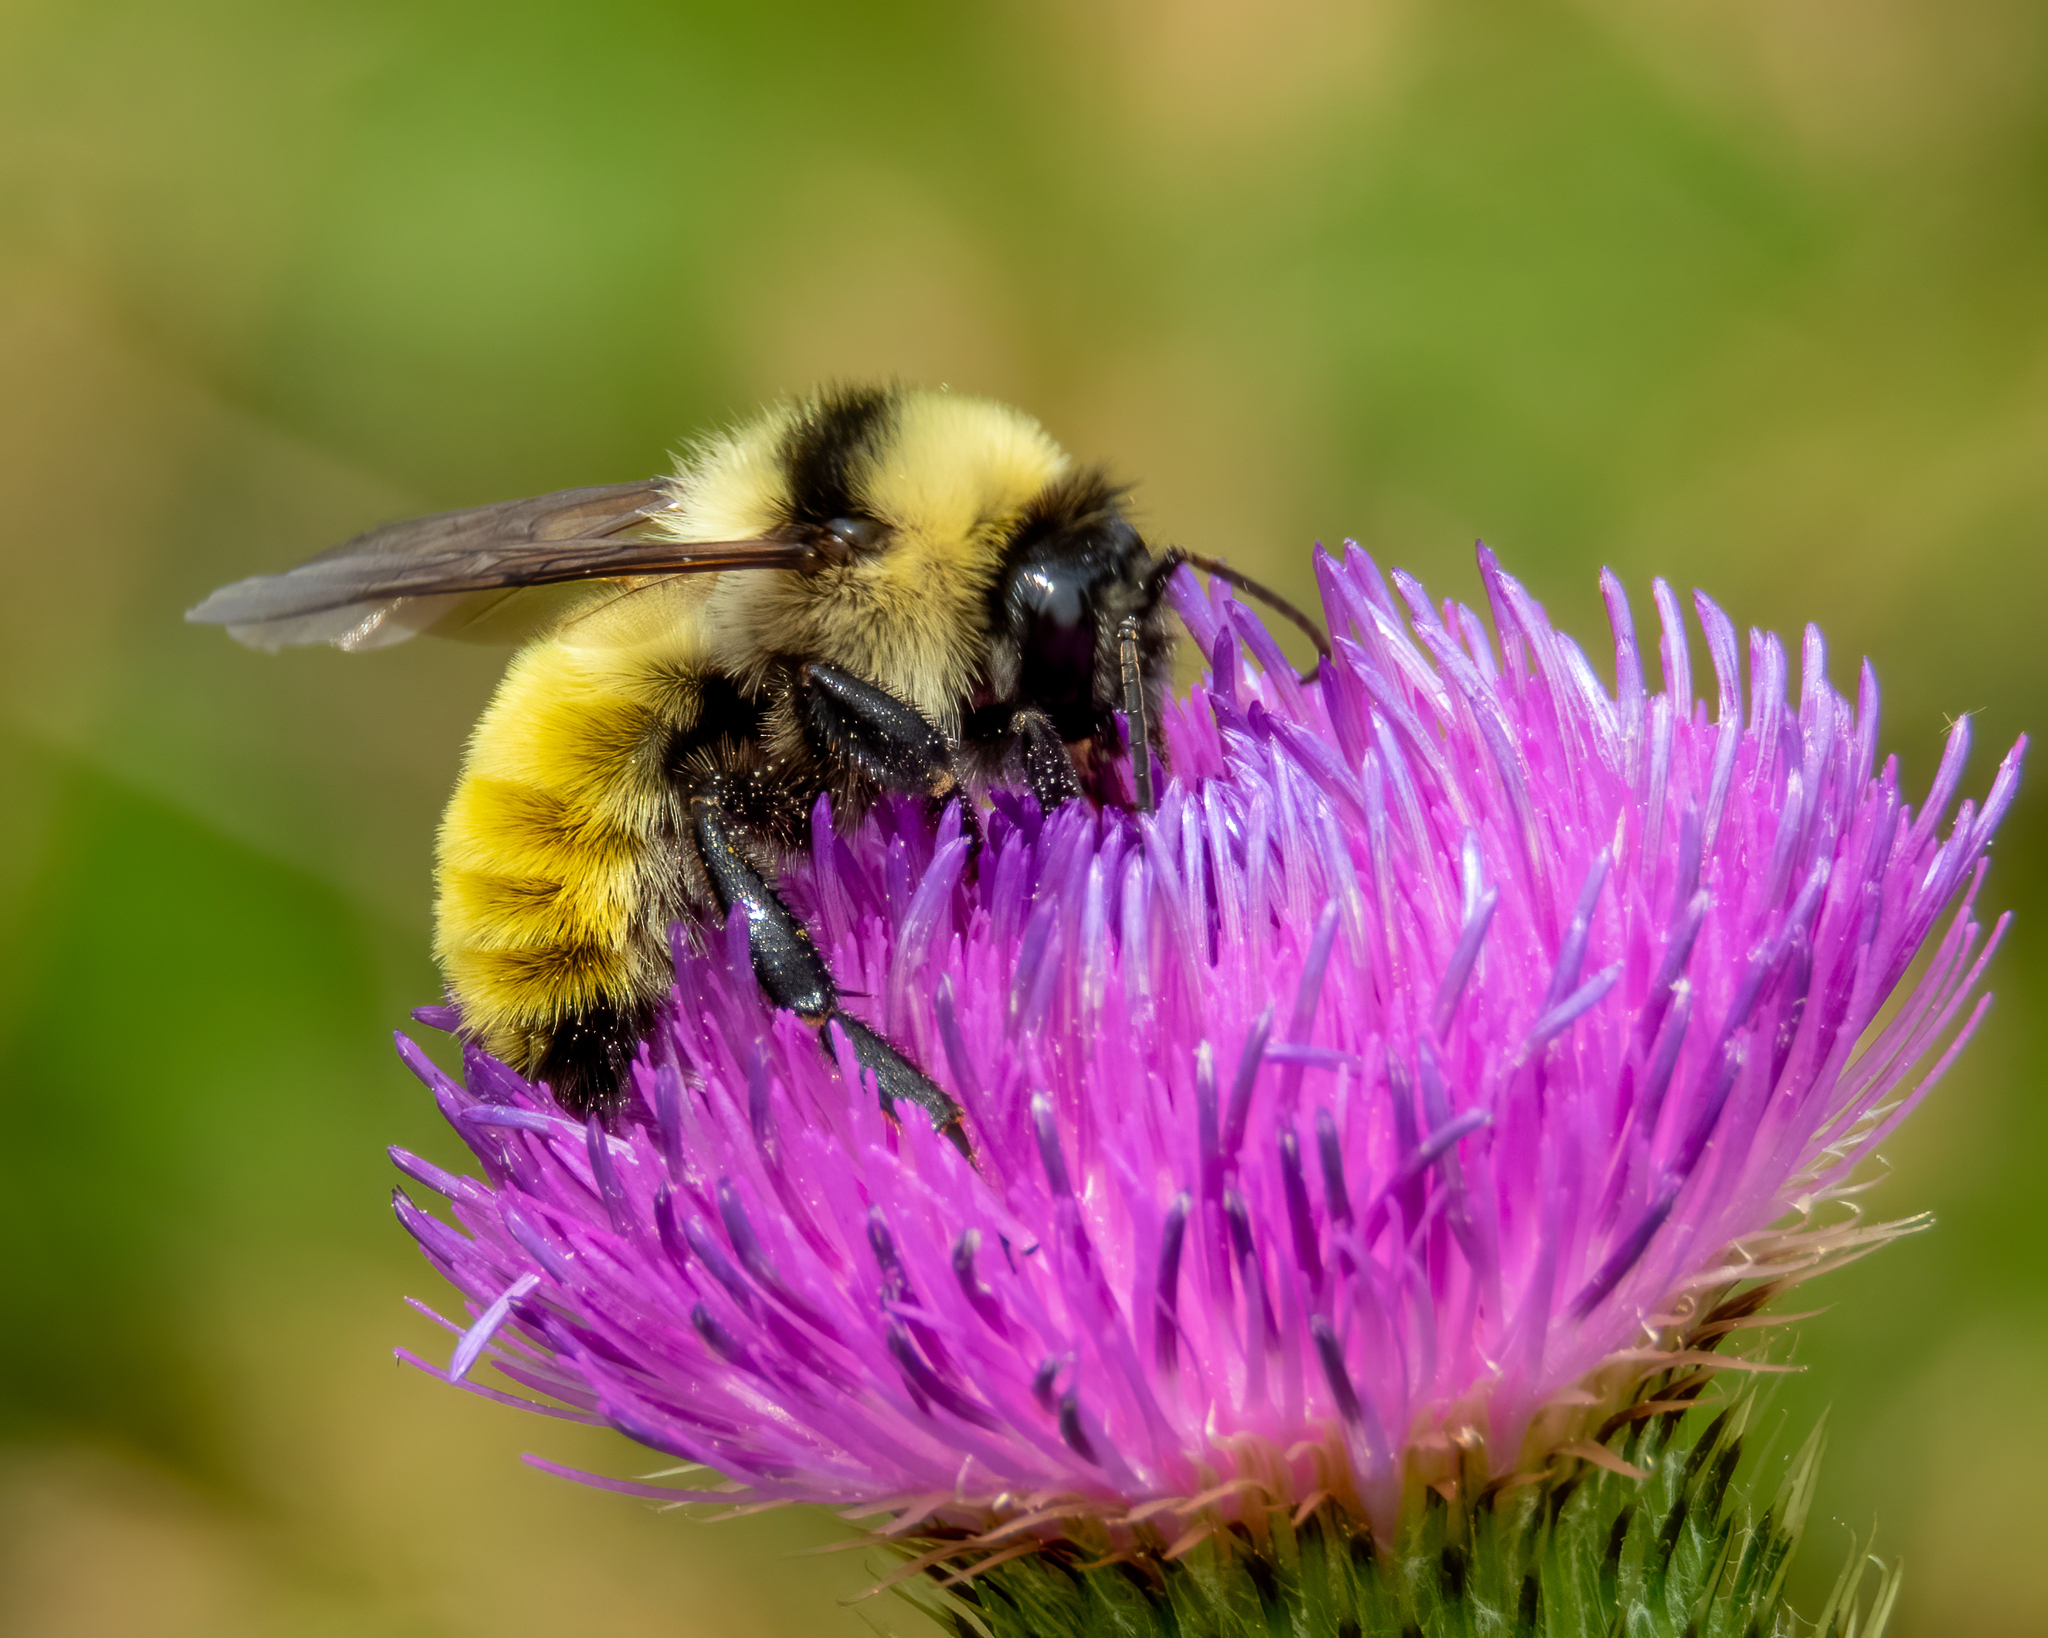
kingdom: Animalia
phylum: Arthropoda
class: Insecta
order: Hymenoptera
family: Apidae
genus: Bombus
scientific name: Bombus fervidus
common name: Yellow bumble bee
